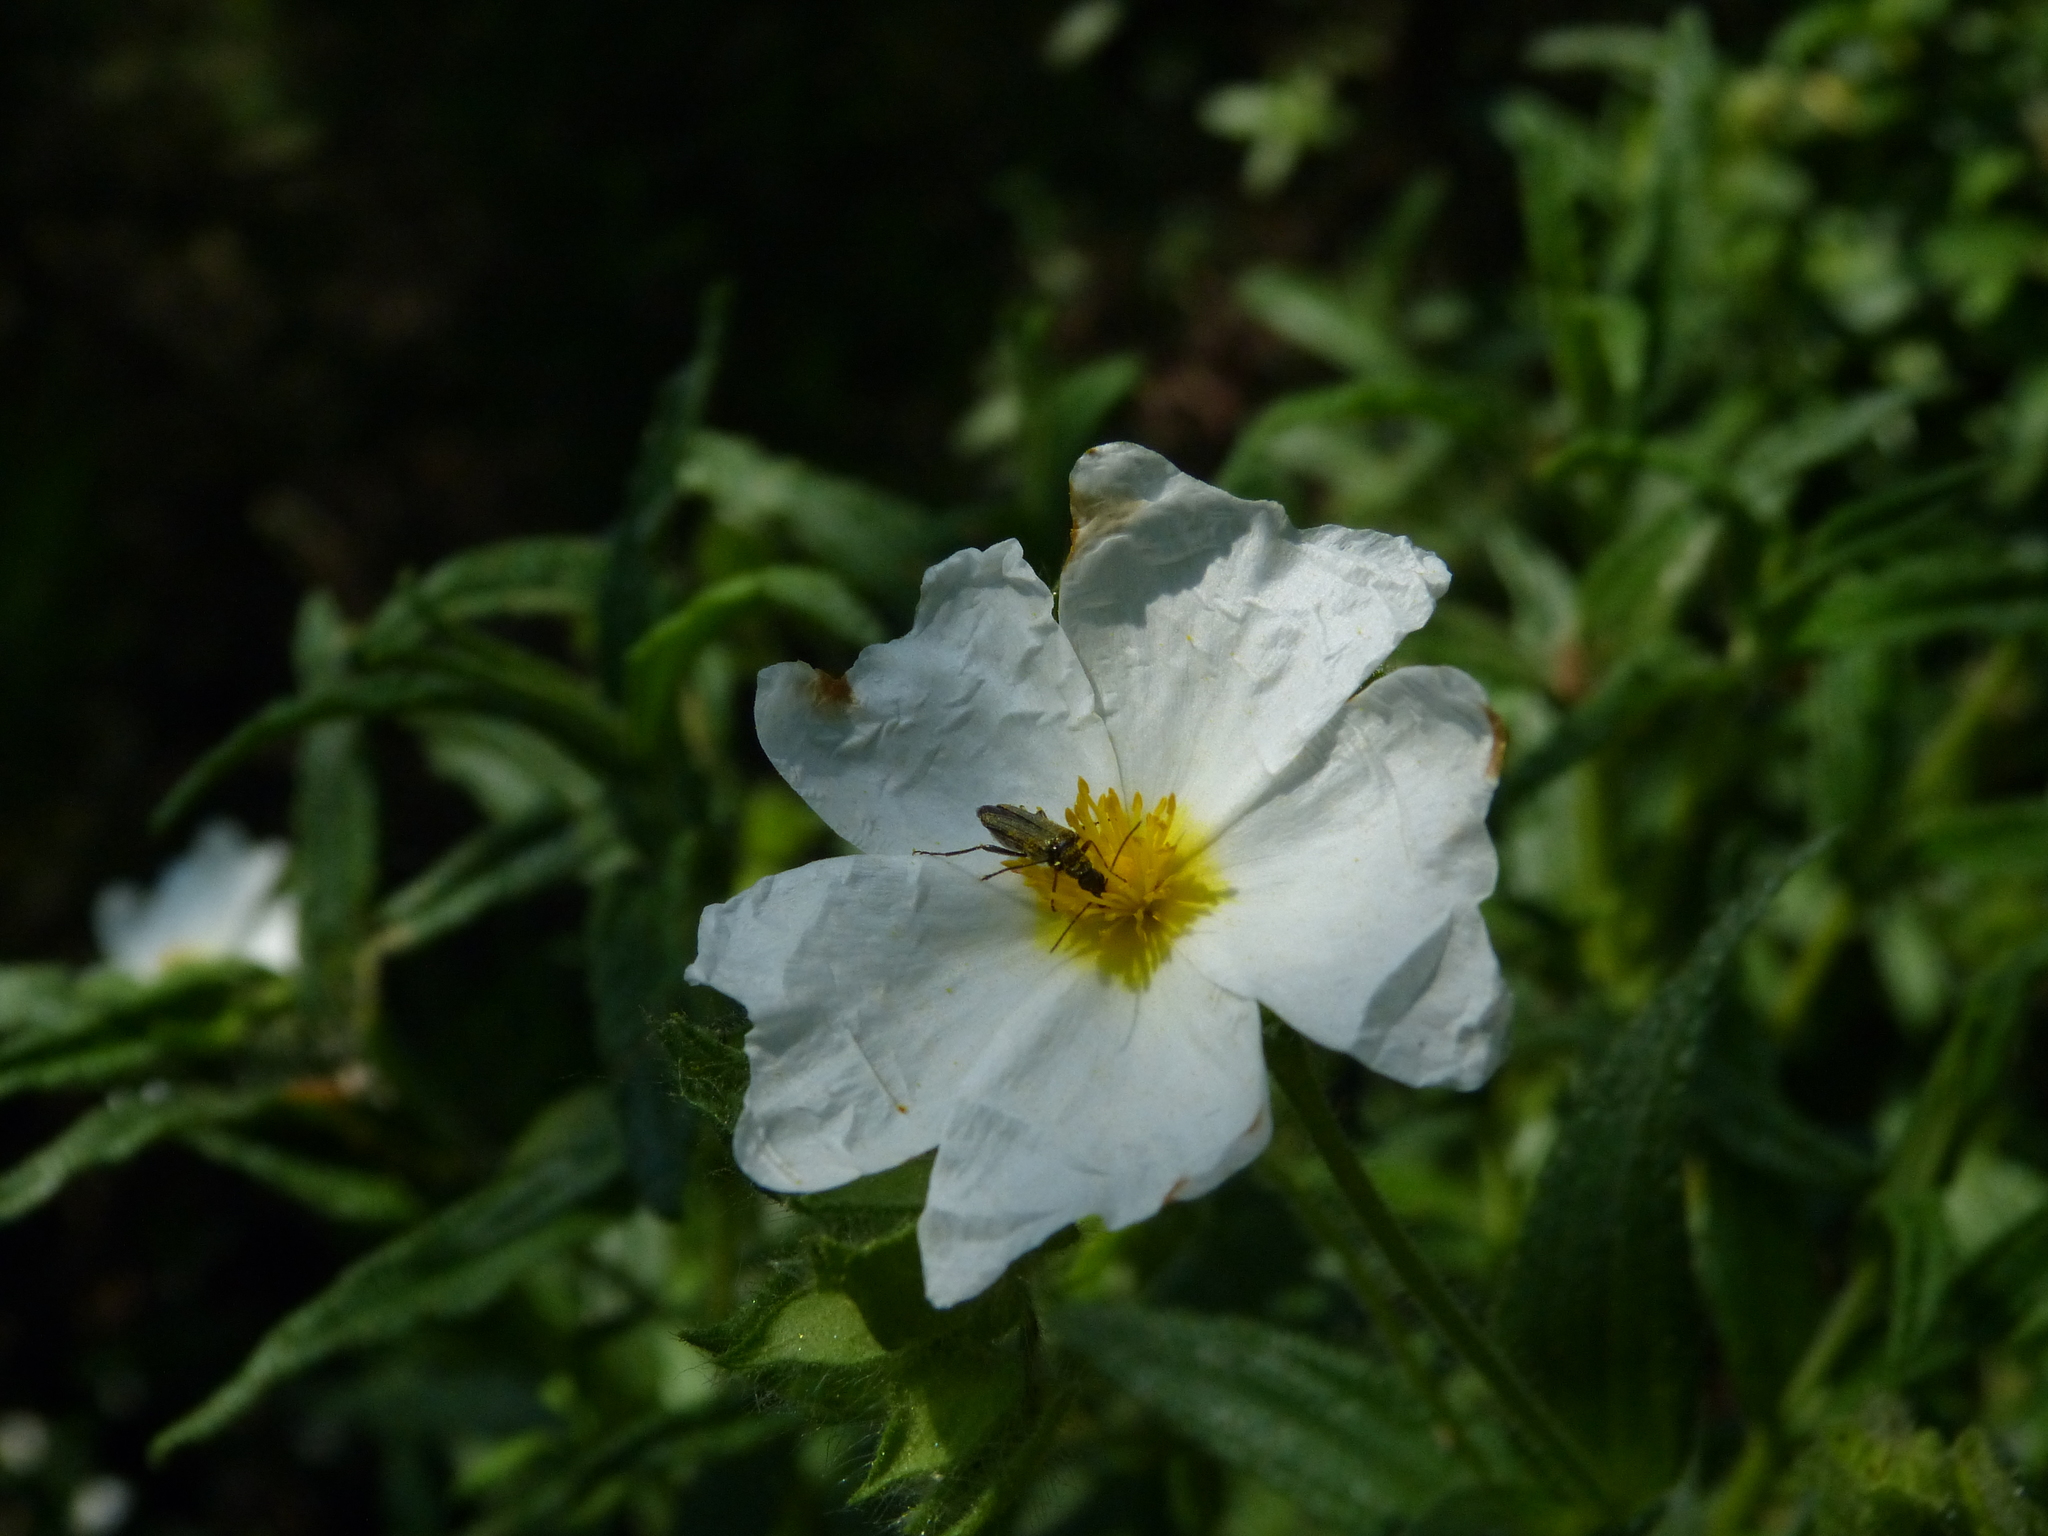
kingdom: Plantae
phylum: Tracheophyta
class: Magnoliopsida
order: Malvales
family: Cistaceae
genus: Cistus
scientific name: Cistus monspeliensis
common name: Montpelier cistus
